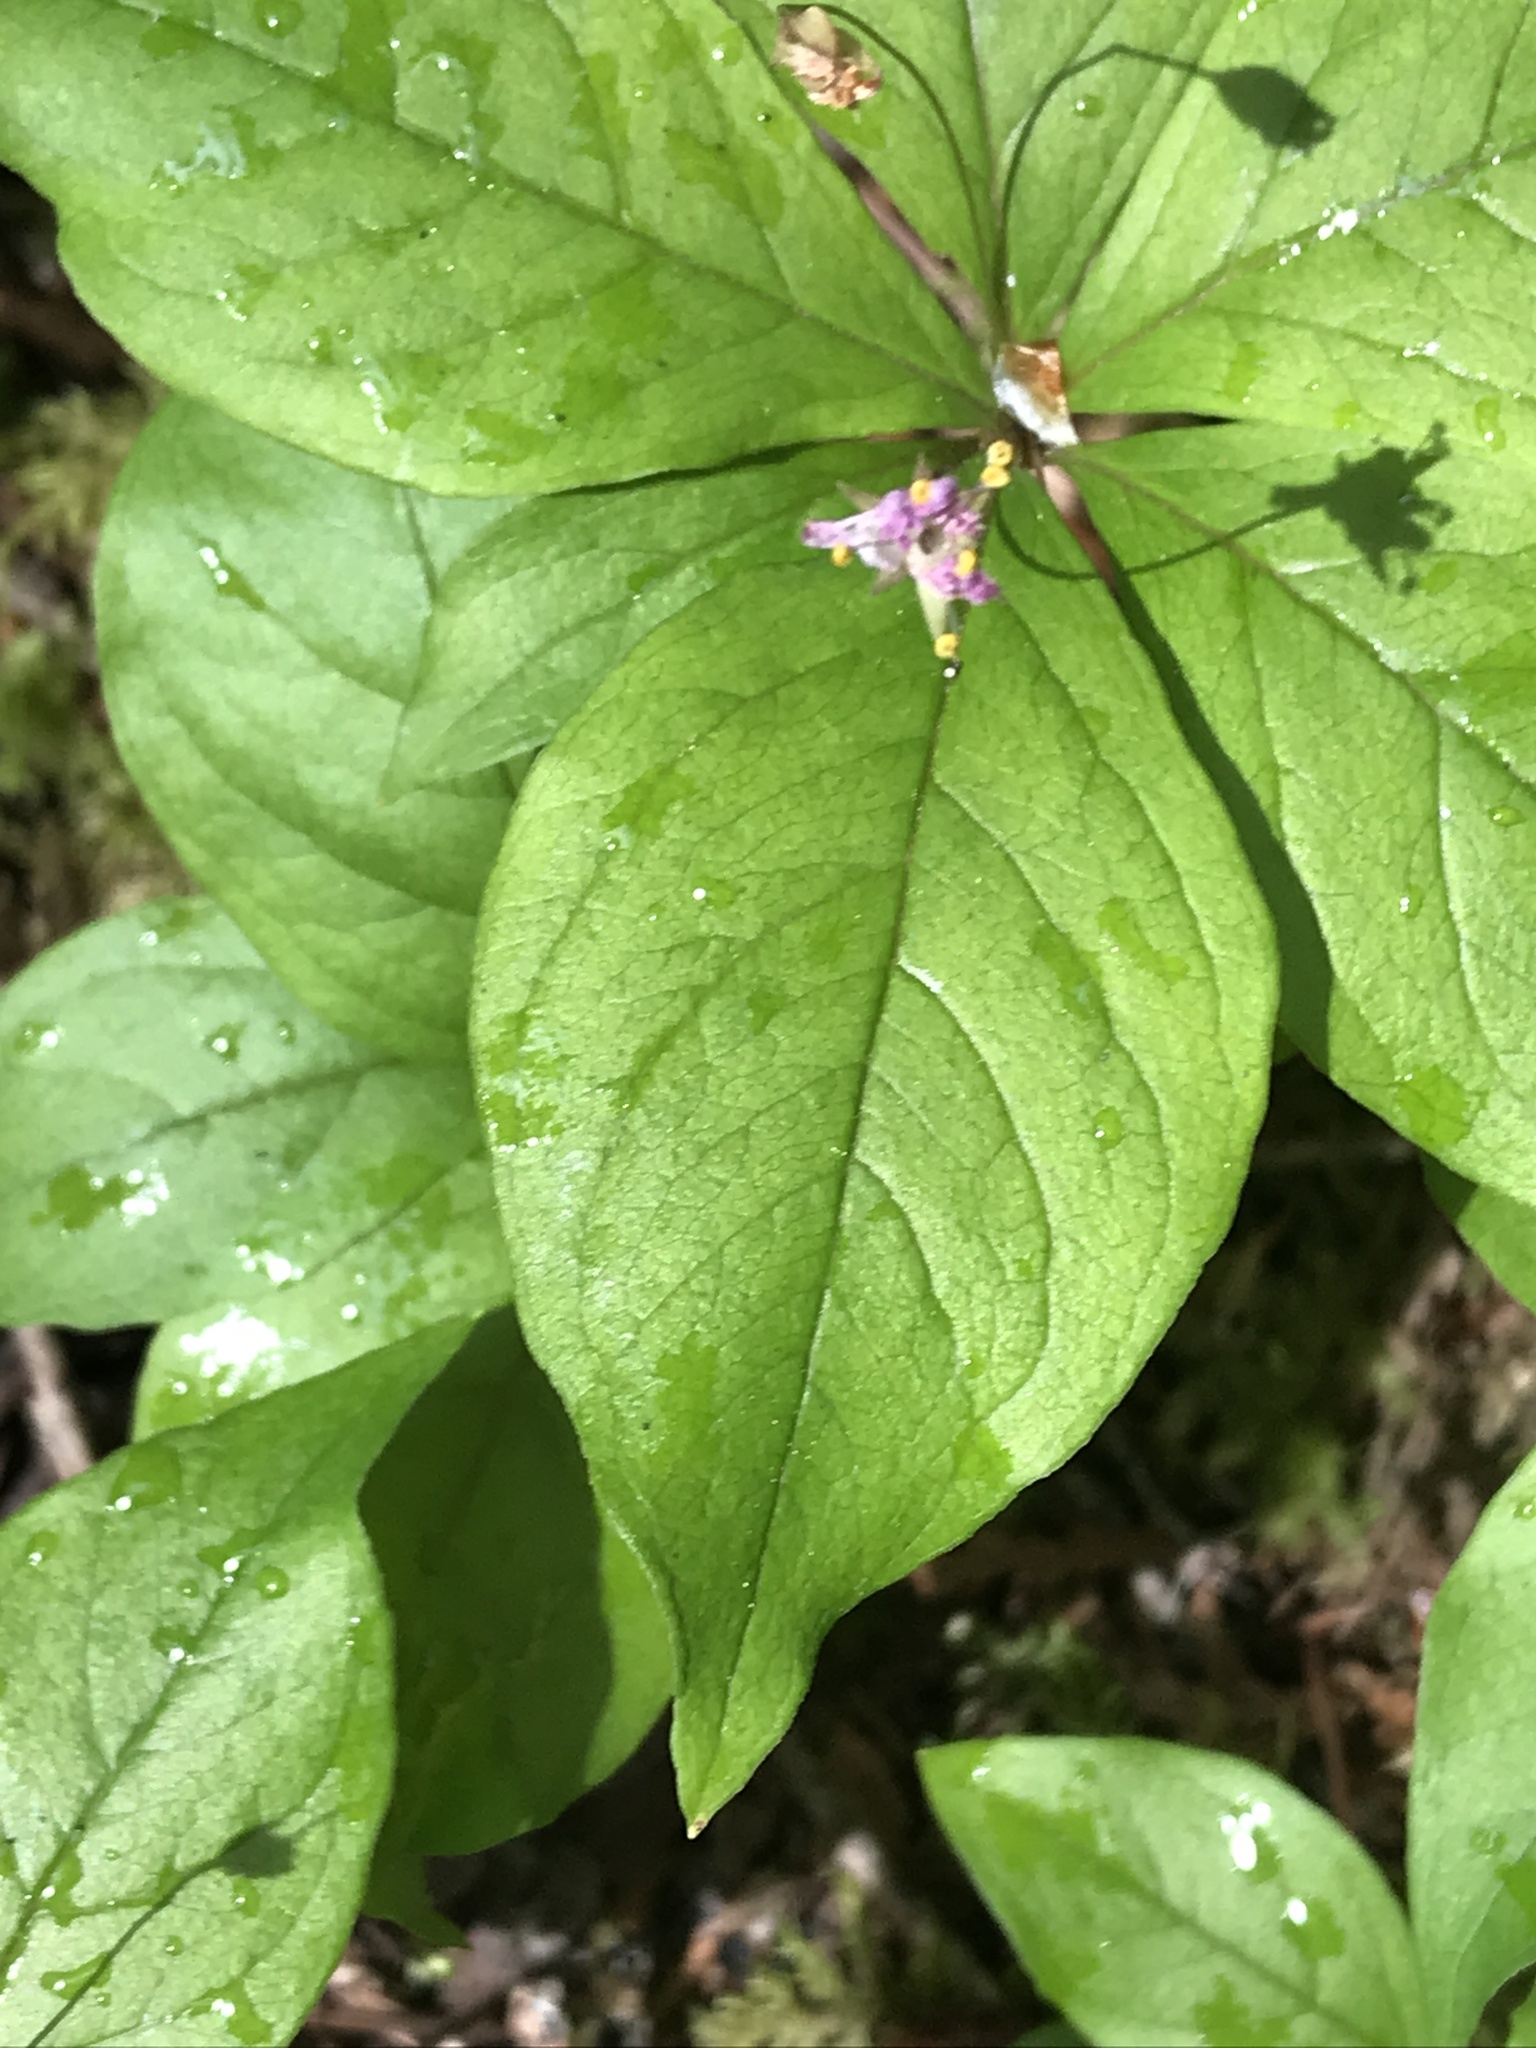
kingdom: Plantae
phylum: Tracheophyta
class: Magnoliopsida
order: Ericales
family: Primulaceae
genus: Lysimachia
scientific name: Lysimachia latifolia
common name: Pacific starflower
